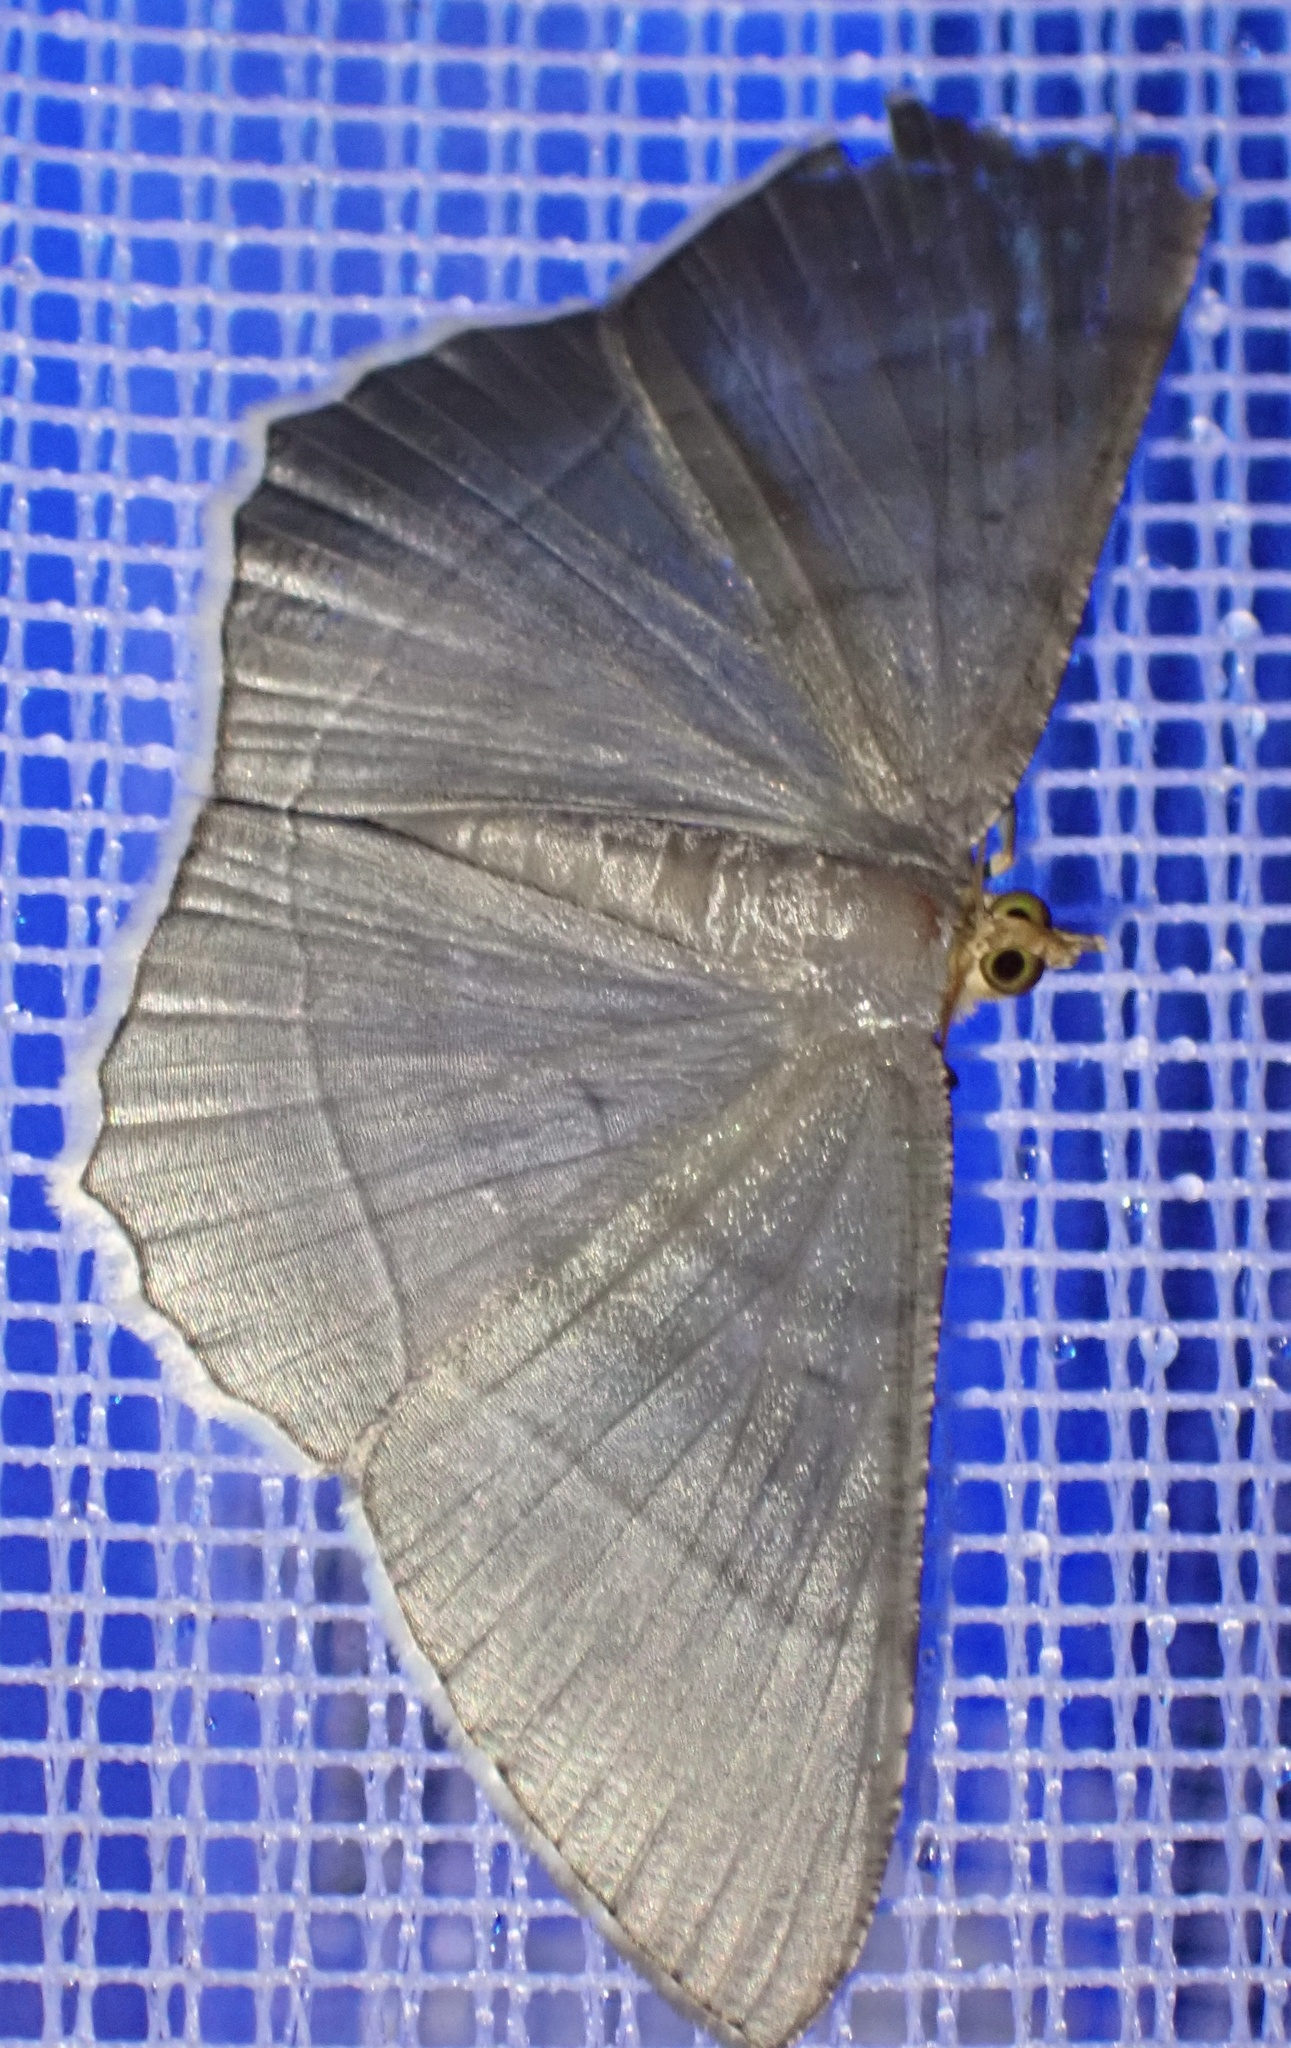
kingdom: Animalia
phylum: Arthropoda
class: Insecta
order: Lepidoptera
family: Geometridae
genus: Bulonga
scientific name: Bulonga griseosericea
